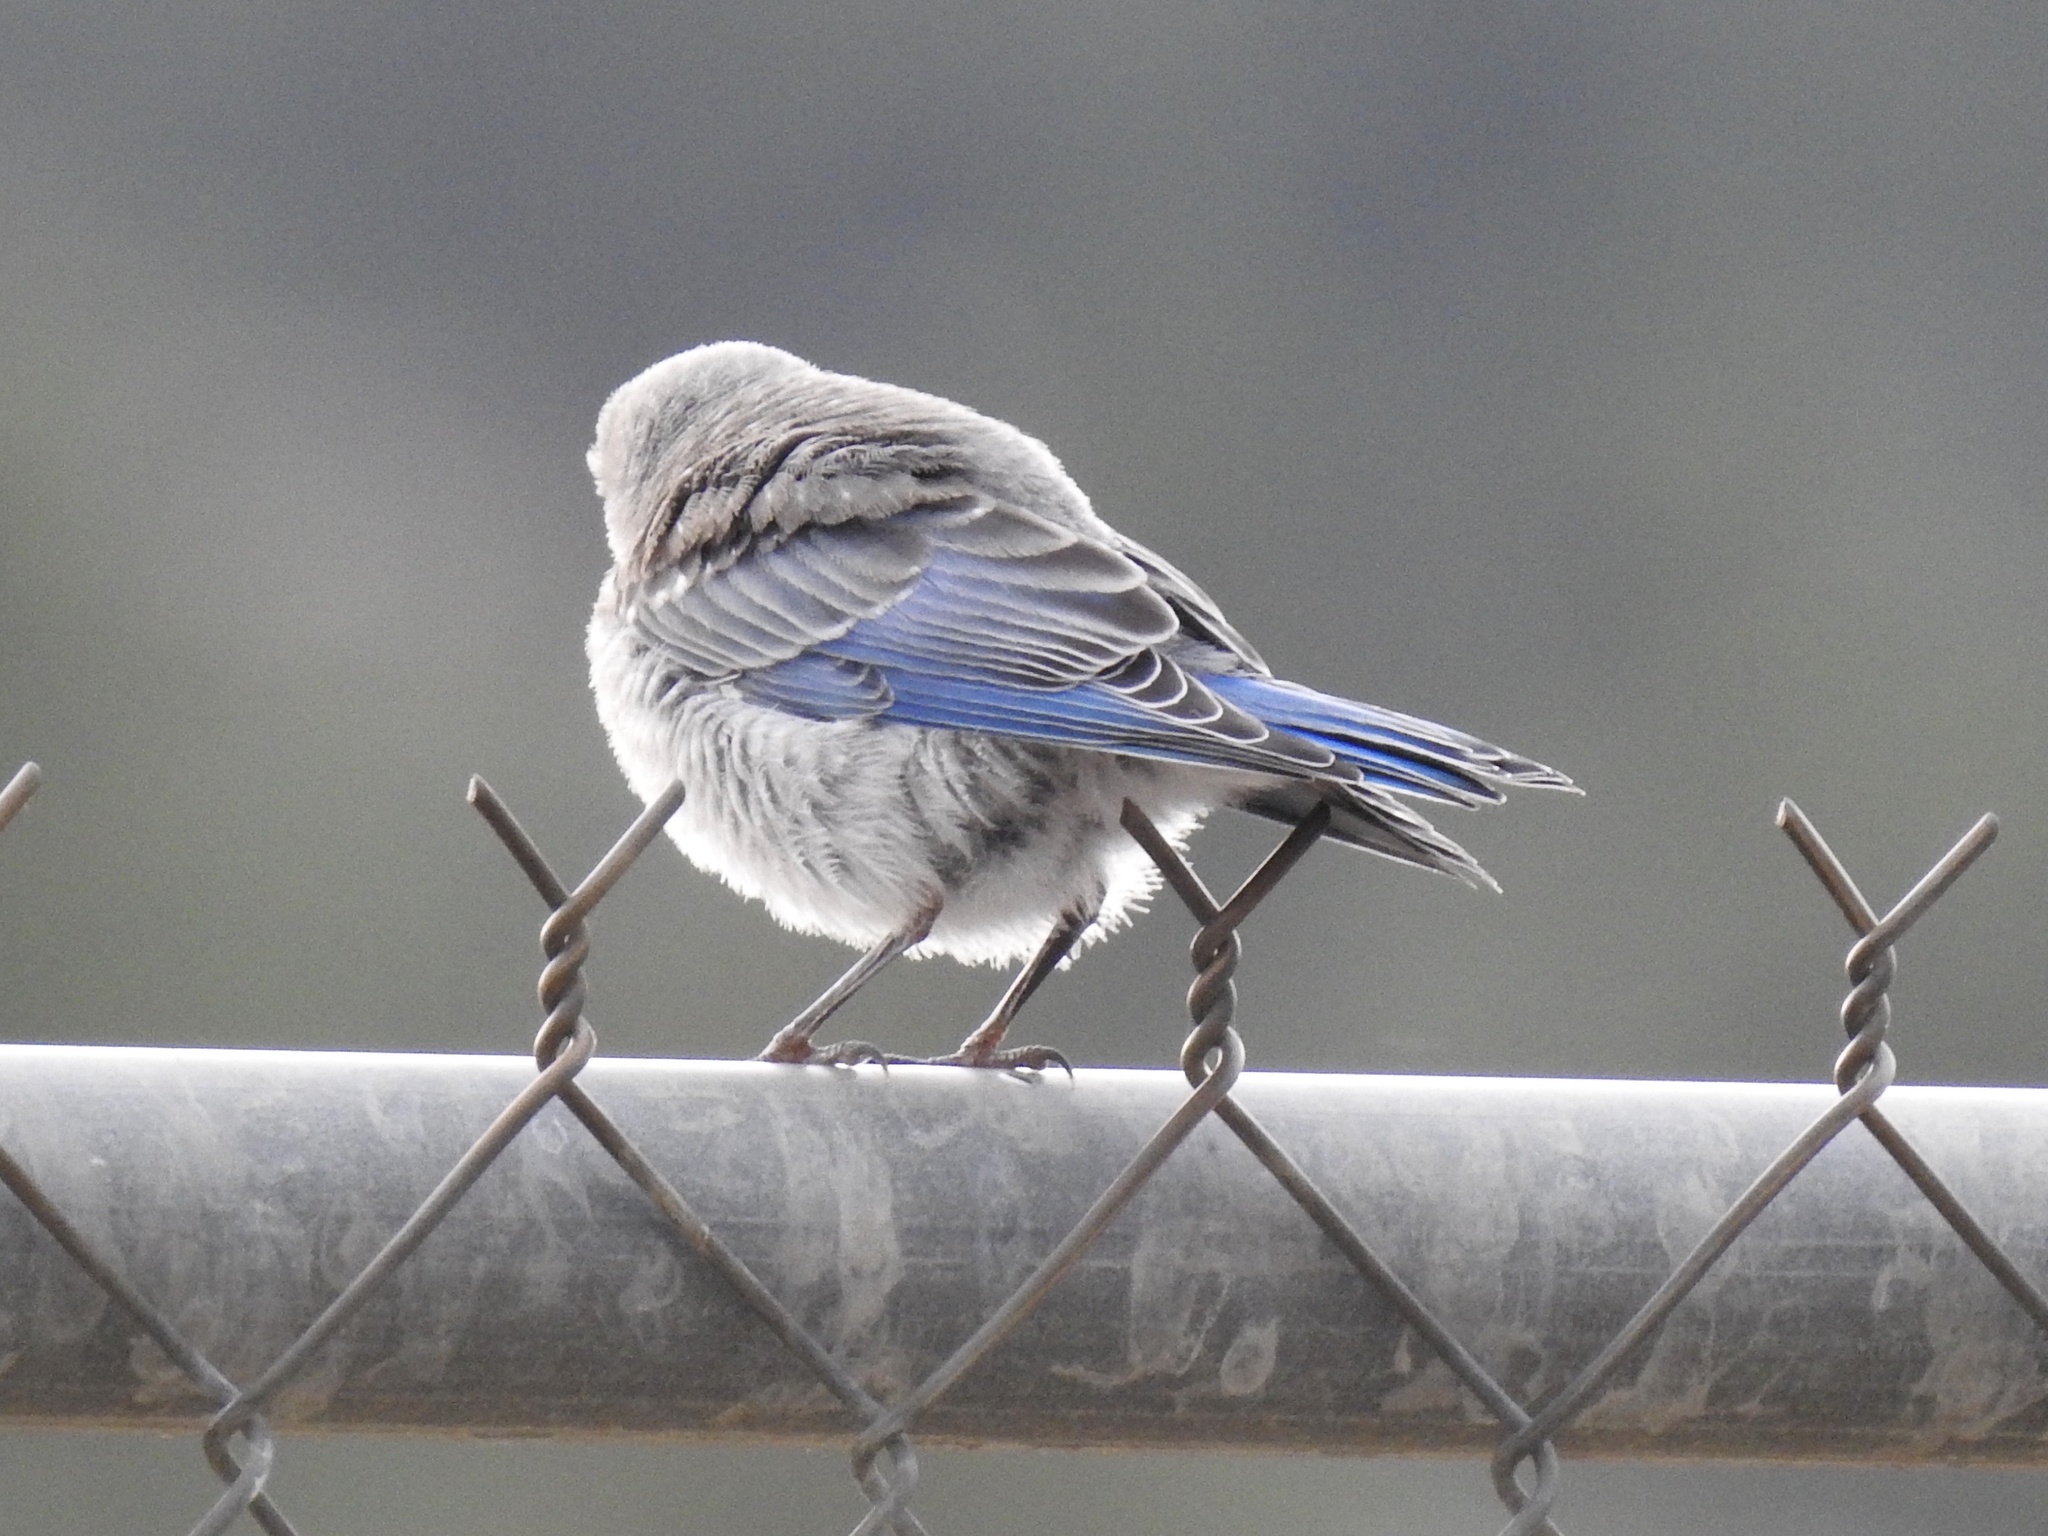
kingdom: Animalia
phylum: Chordata
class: Aves
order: Passeriformes
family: Turdidae
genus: Sialia
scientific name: Sialia currucoides
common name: Mountain bluebird
